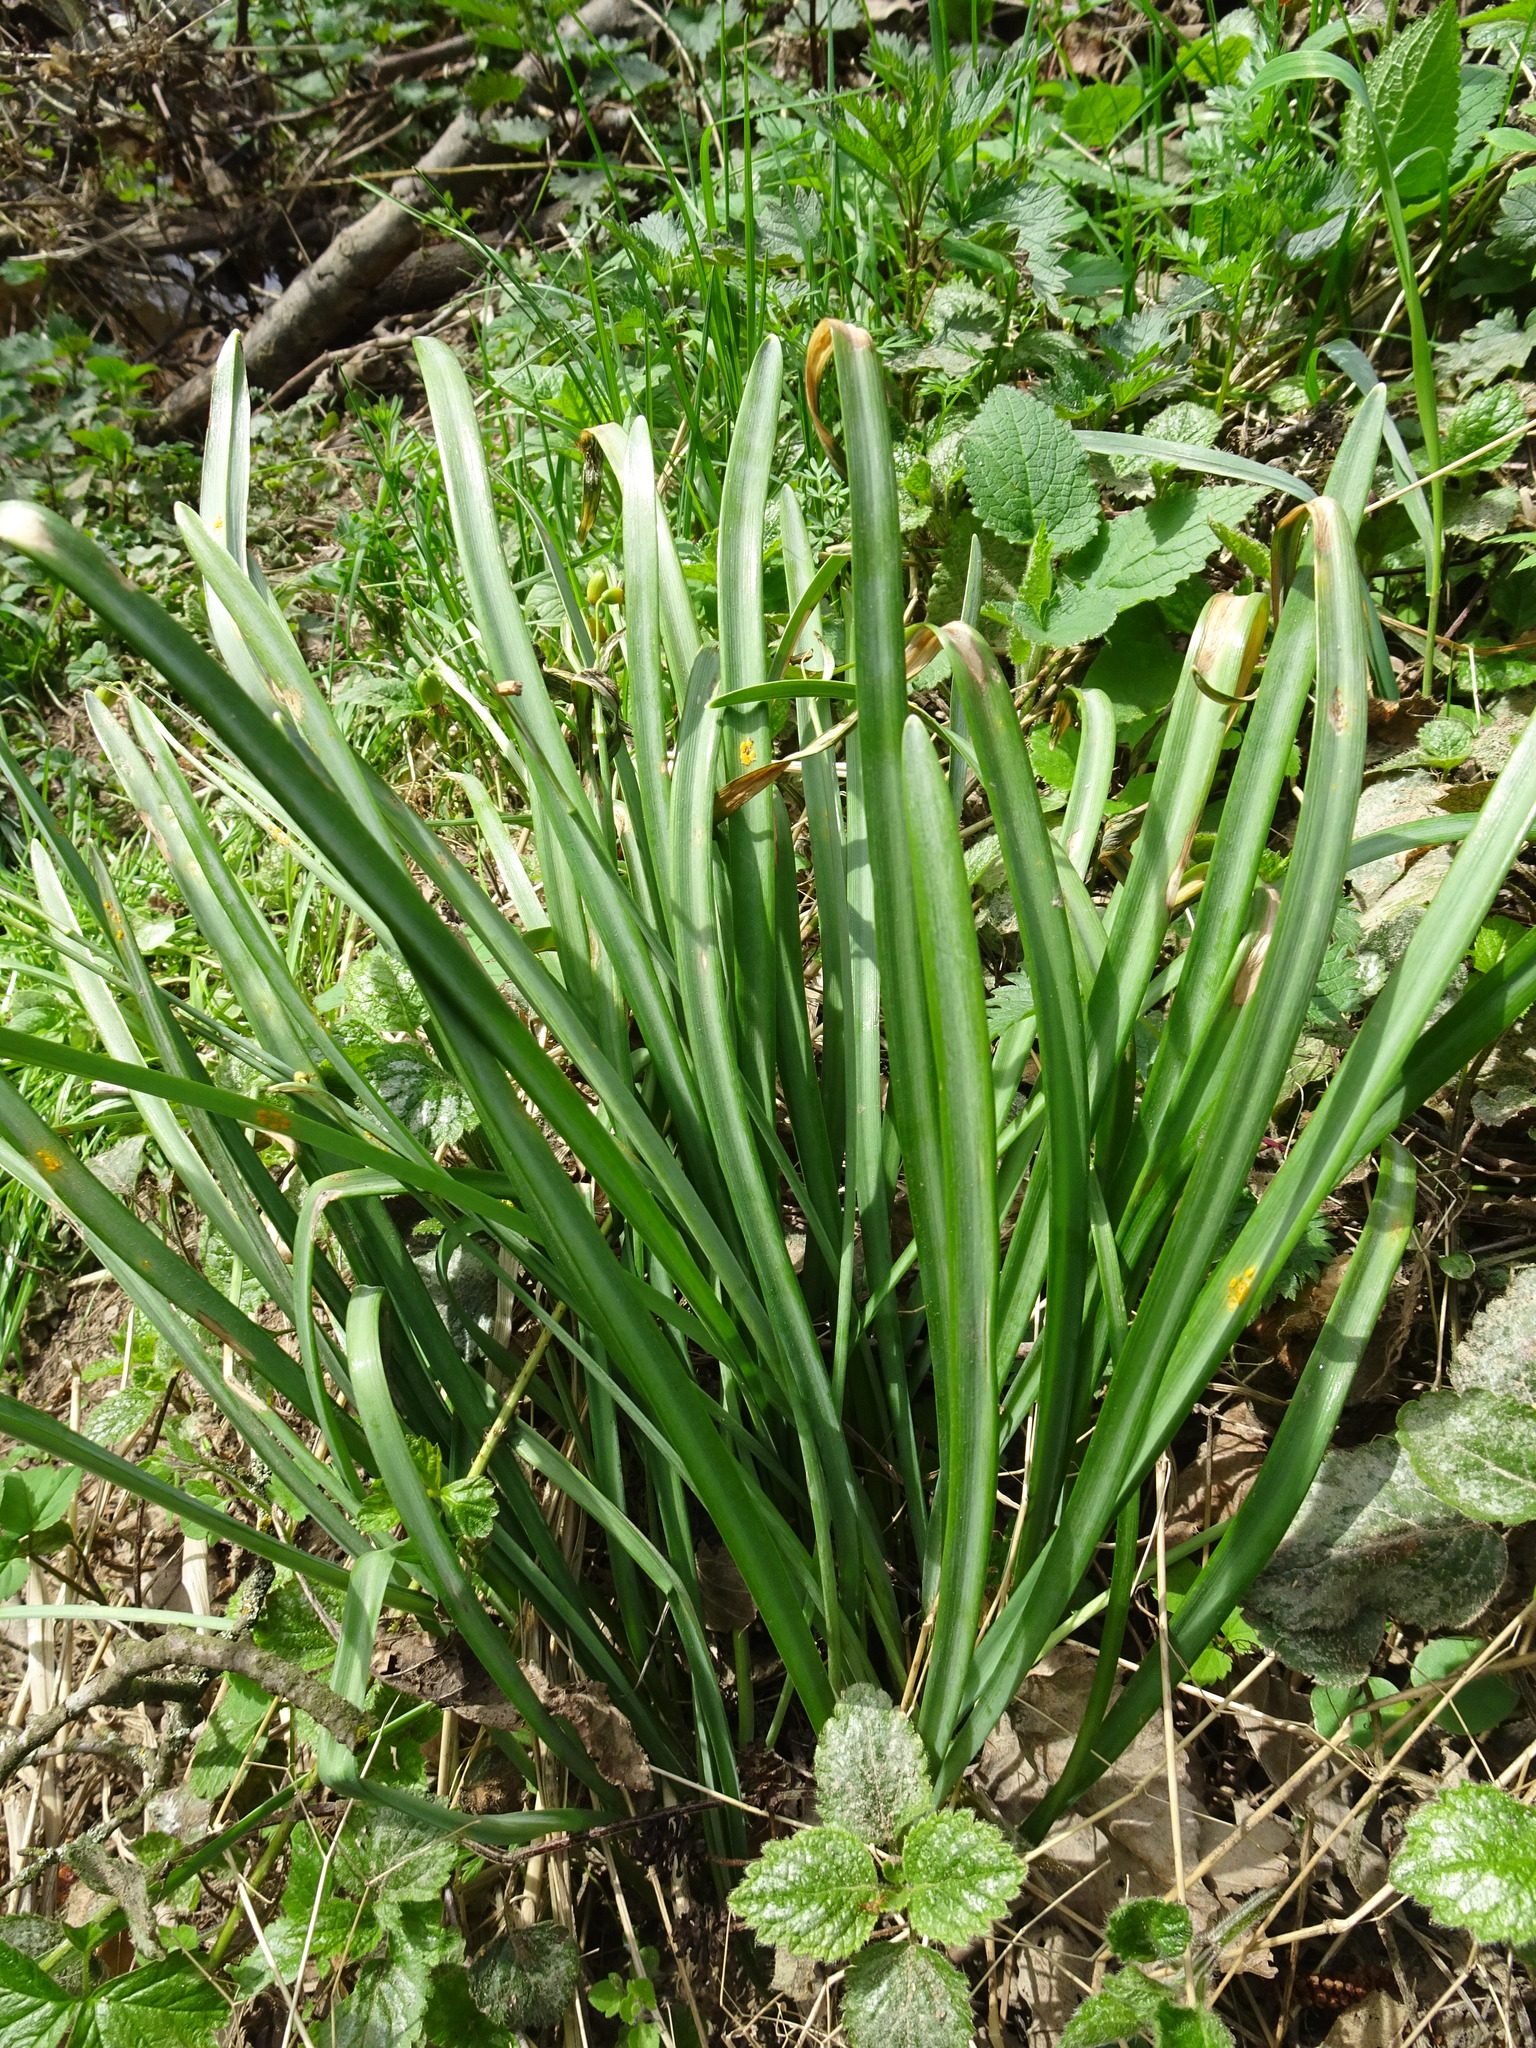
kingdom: Plantae
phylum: Tracheophyta
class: Liliopsida
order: Asparagales
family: Amaryllidaceae
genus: Galanthus
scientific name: Galanthus nivalis
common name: Snowdrop
